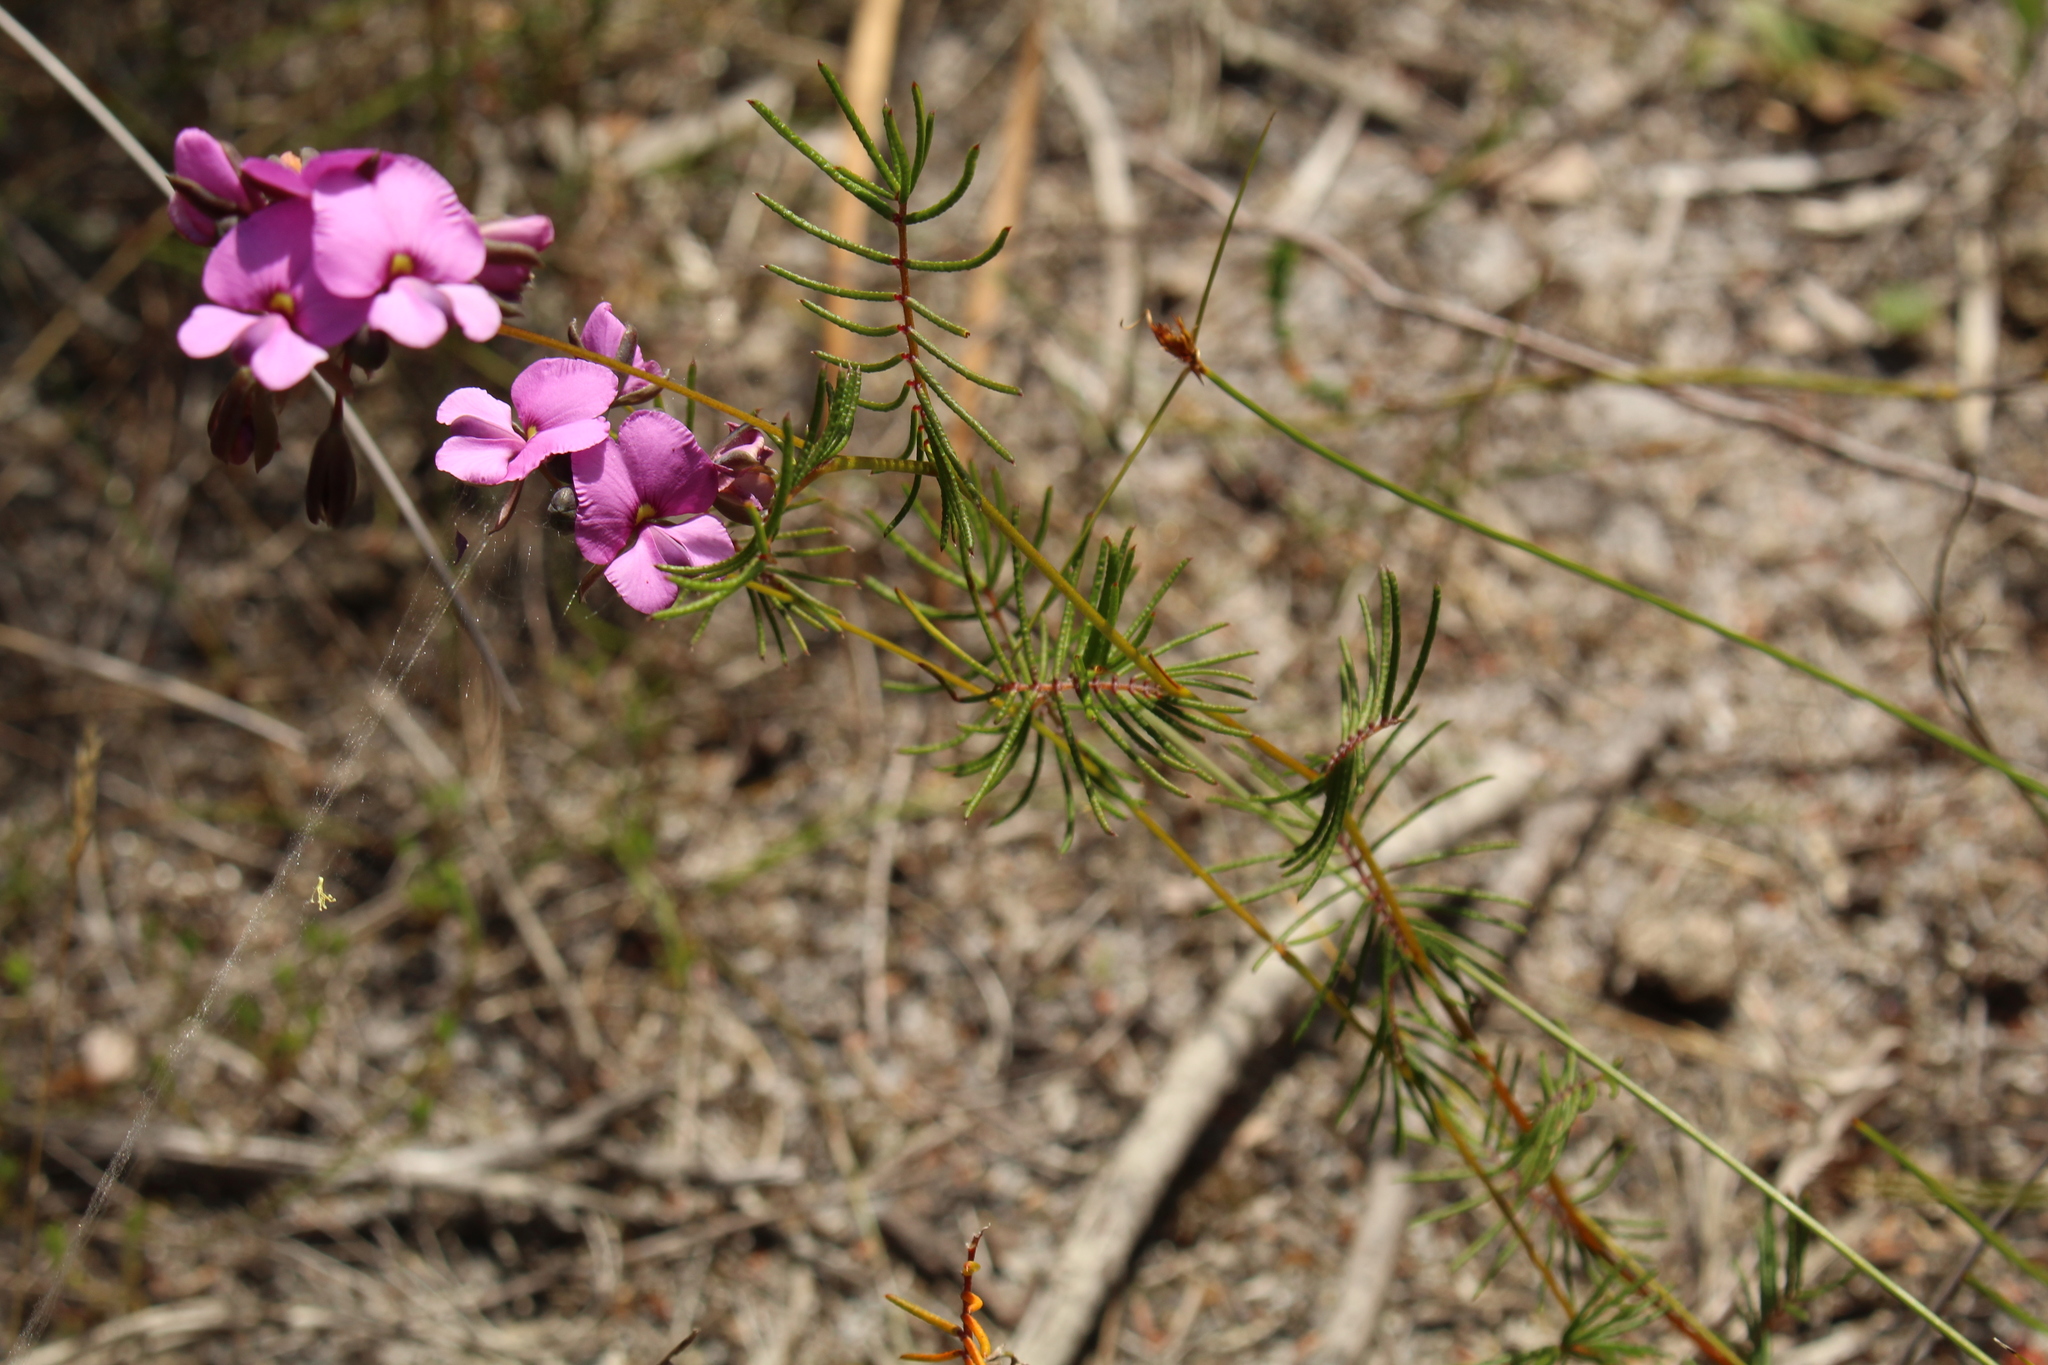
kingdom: Plantae
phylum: Tracheophyta
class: Magnoliopsida
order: Fabales
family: Fabaceae
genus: Gompholobium
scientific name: Gompholobium venustum
